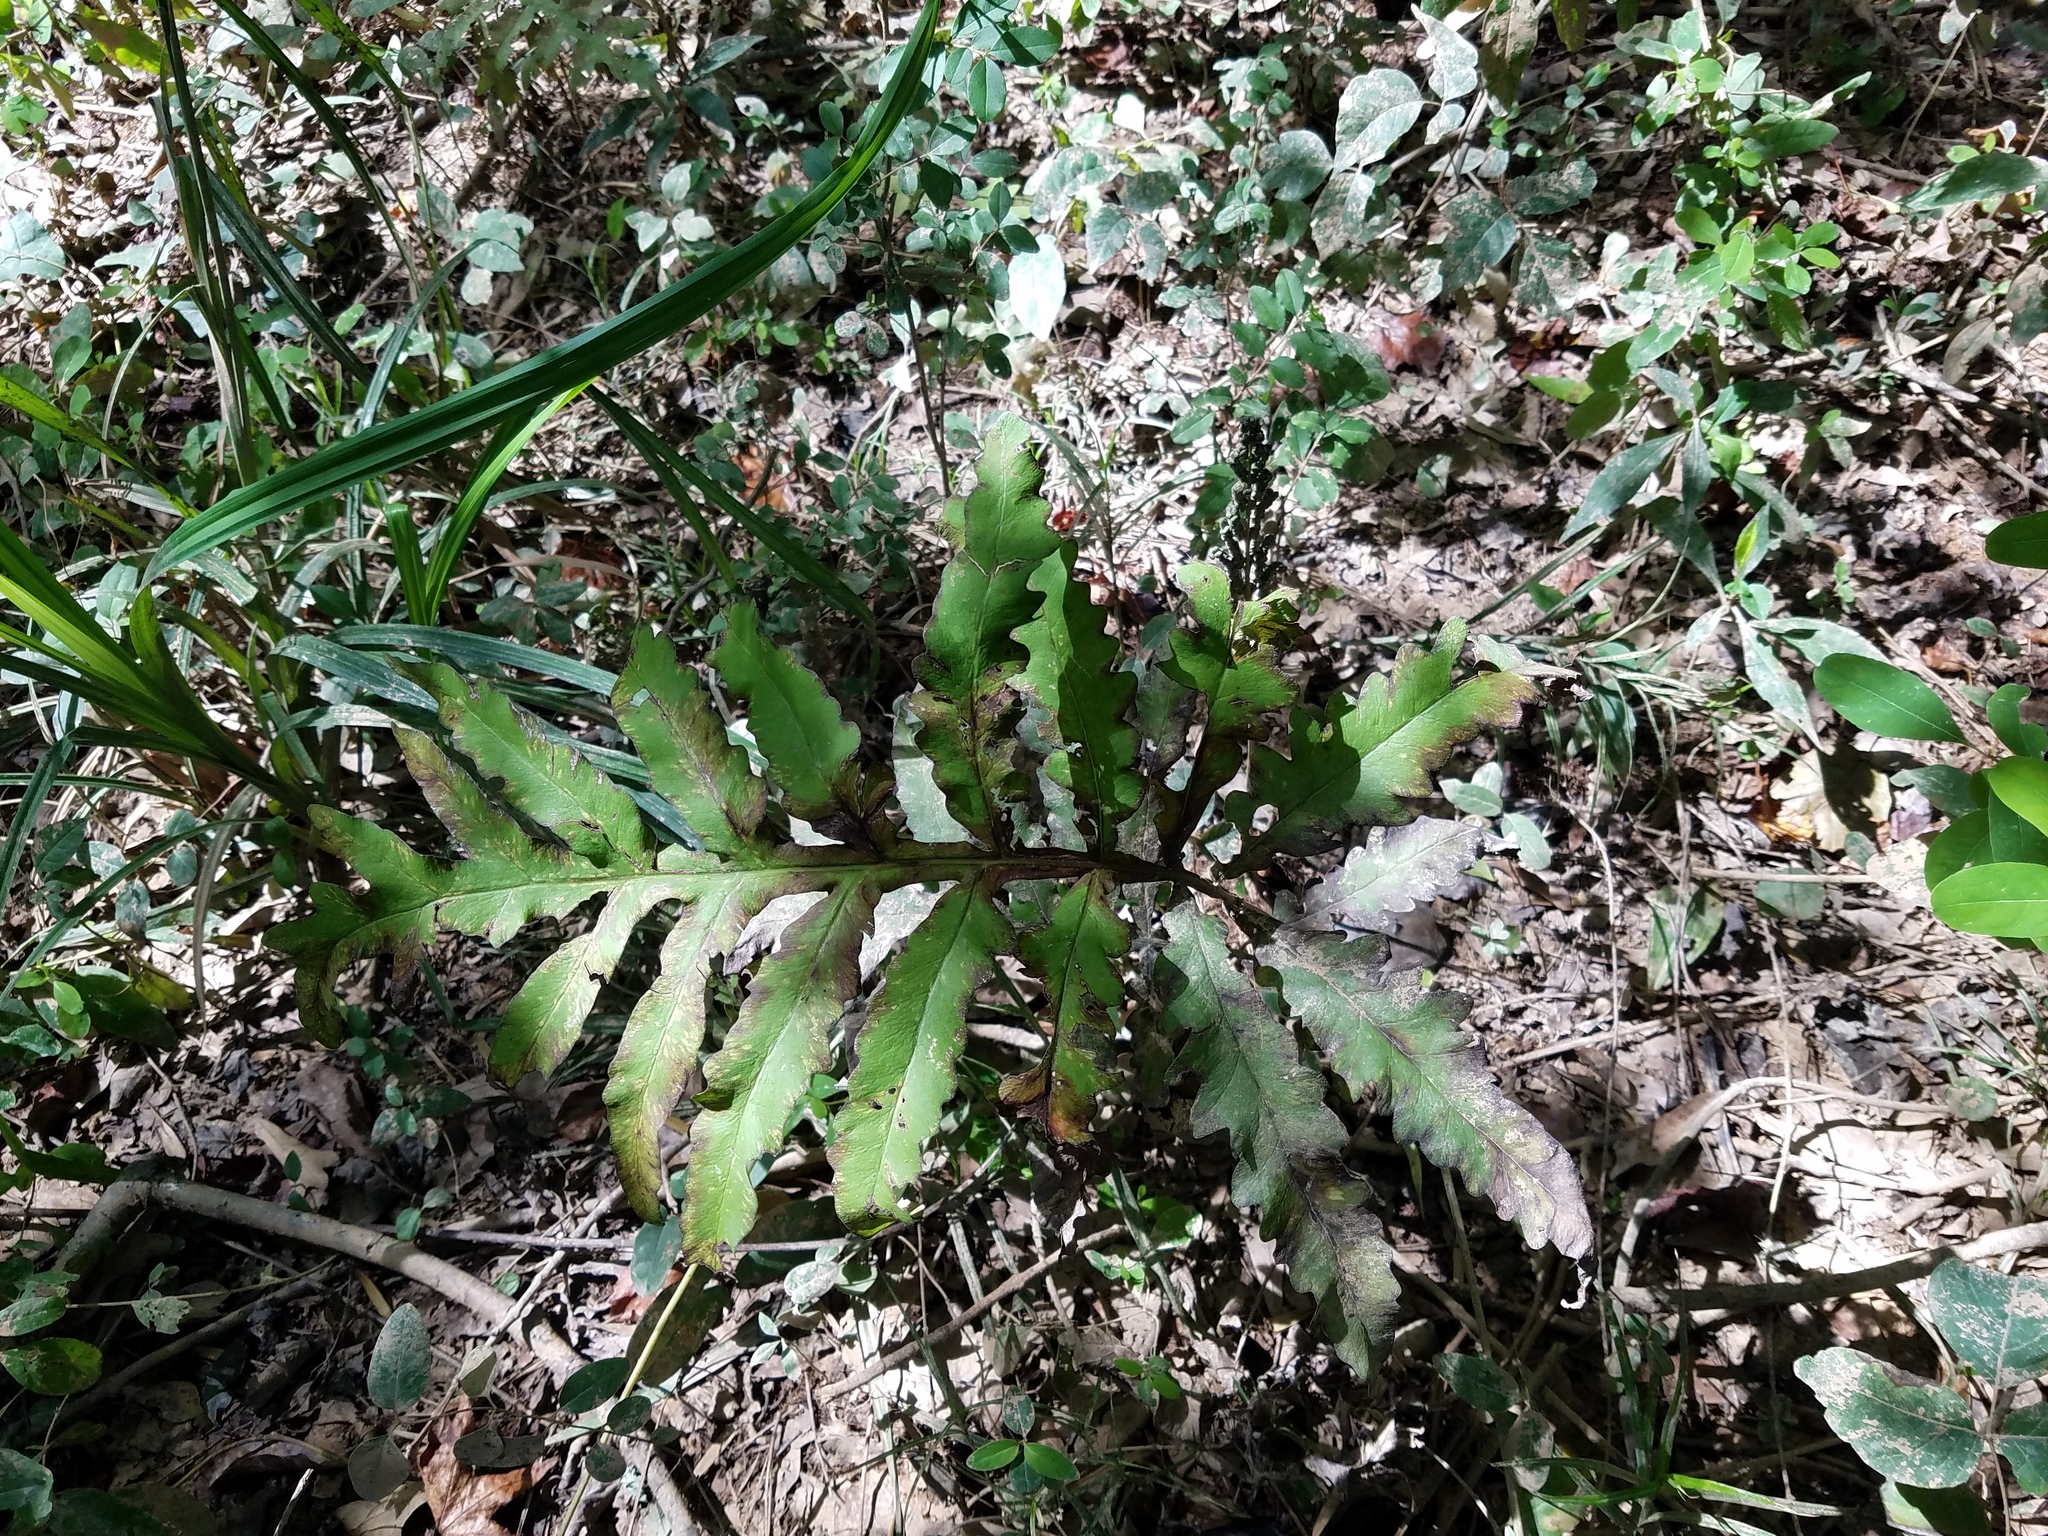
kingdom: Plantae
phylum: Tracheophyta
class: Polypodiopsida
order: Polypodiales
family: Onocleaceae
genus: Onoclea
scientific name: Onoclea sensibilis
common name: Sensitive fern
